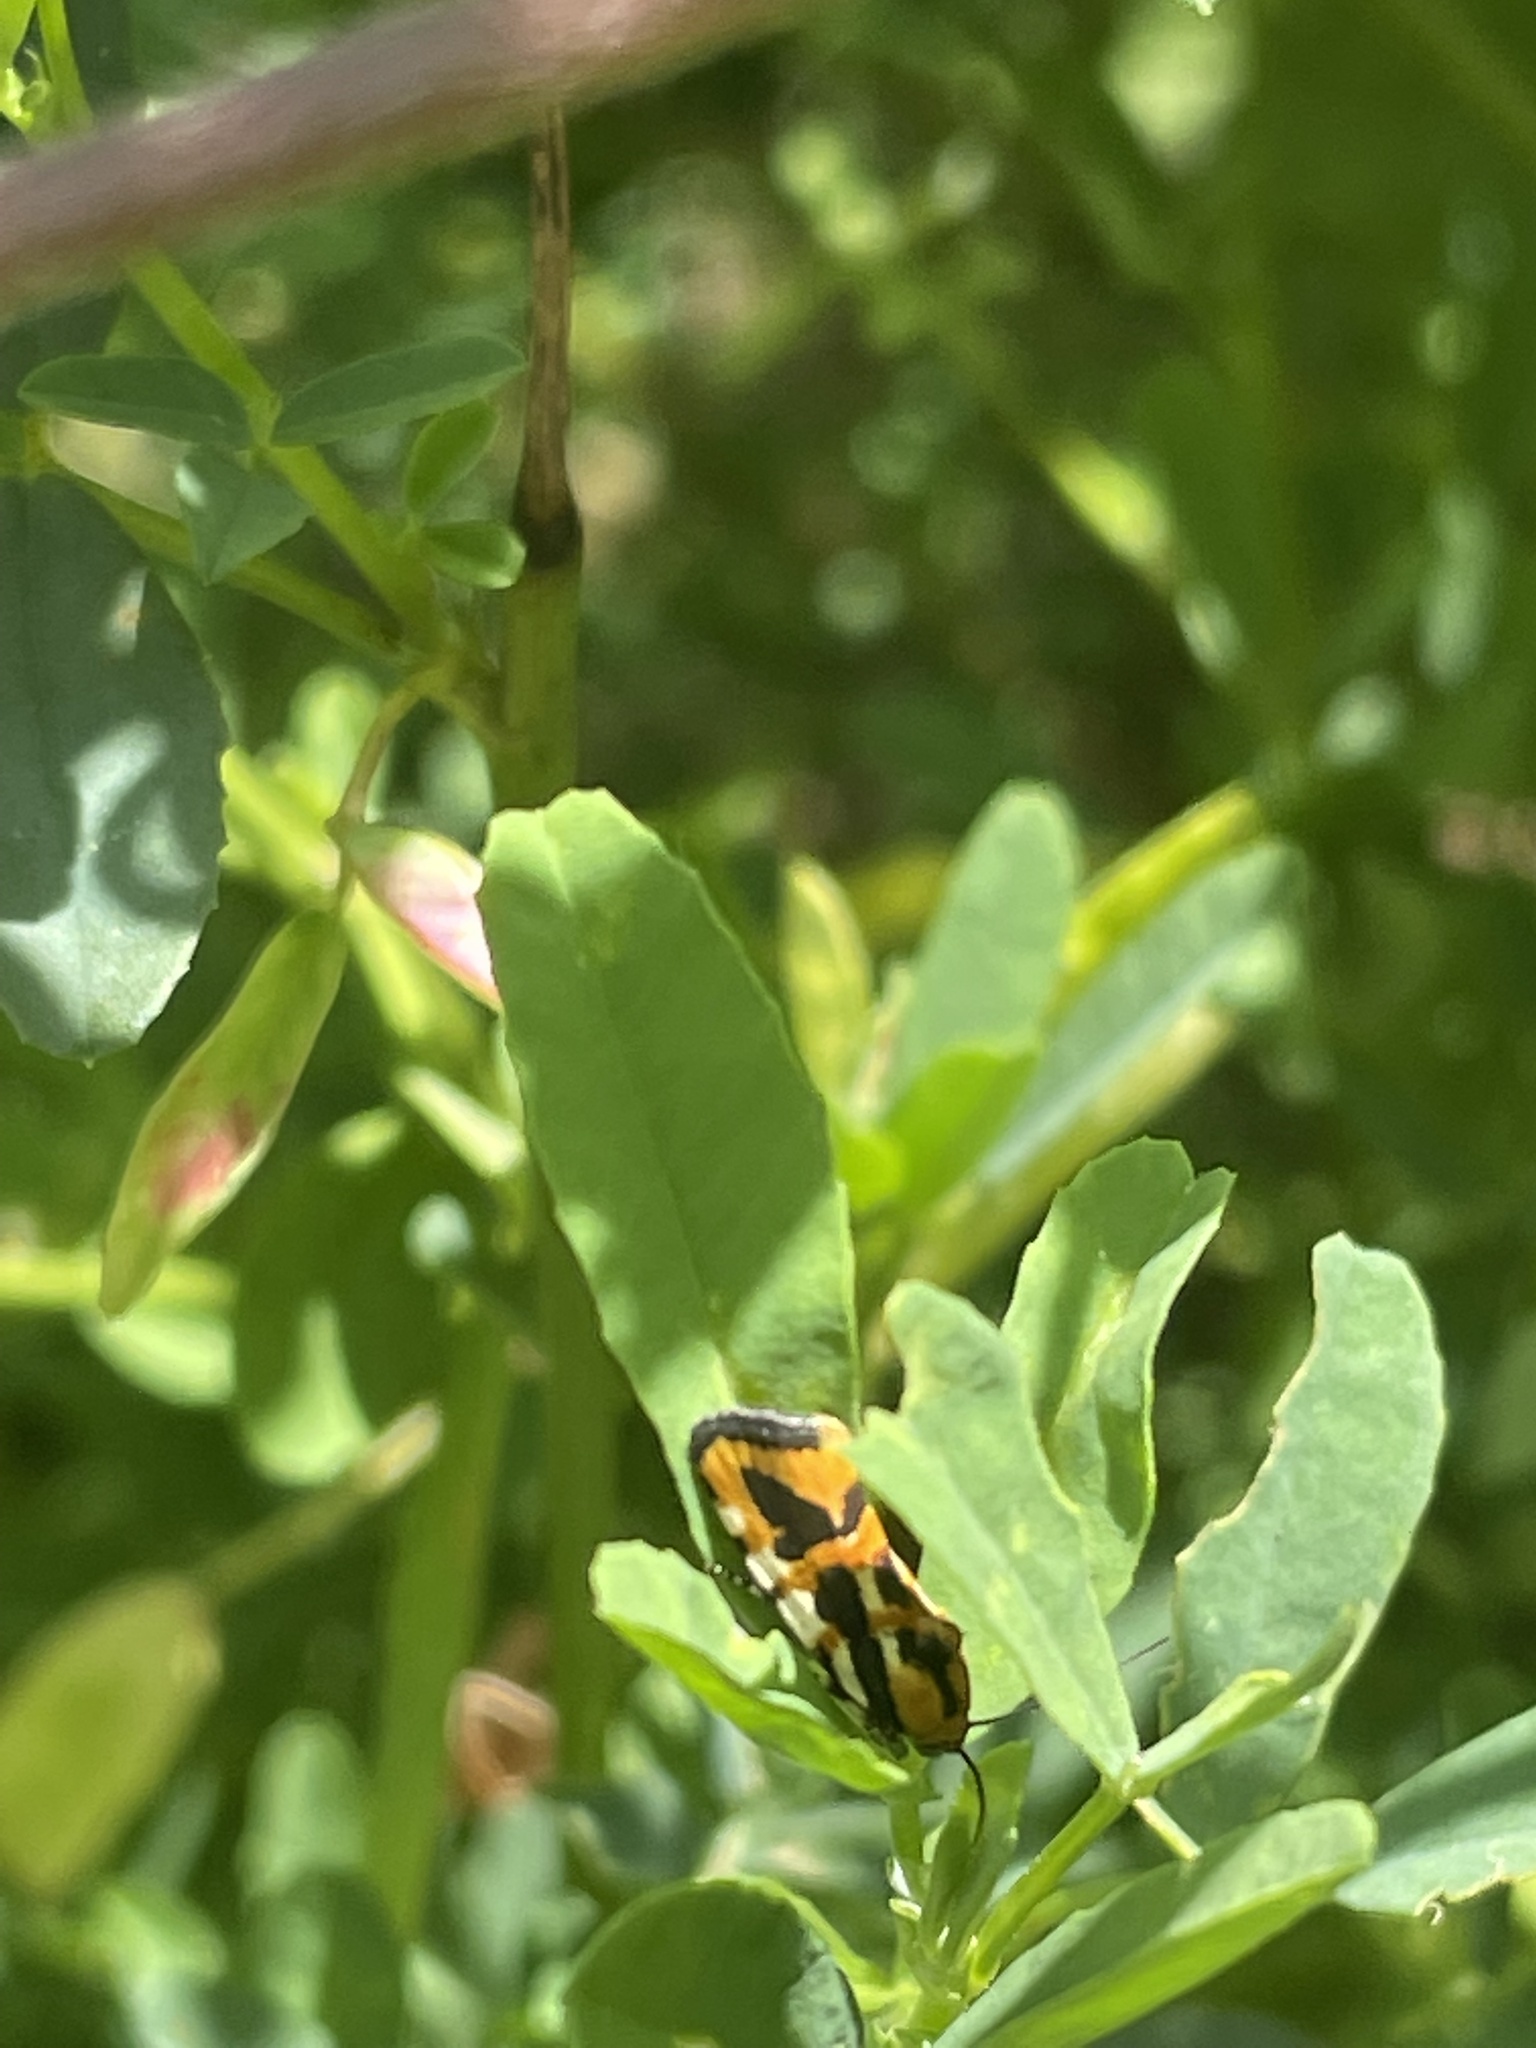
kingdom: Animalia
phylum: Arthropoda
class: Insecta
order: Lepidoptera
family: Noctuidae
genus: Acontia
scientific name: Acontia leo
